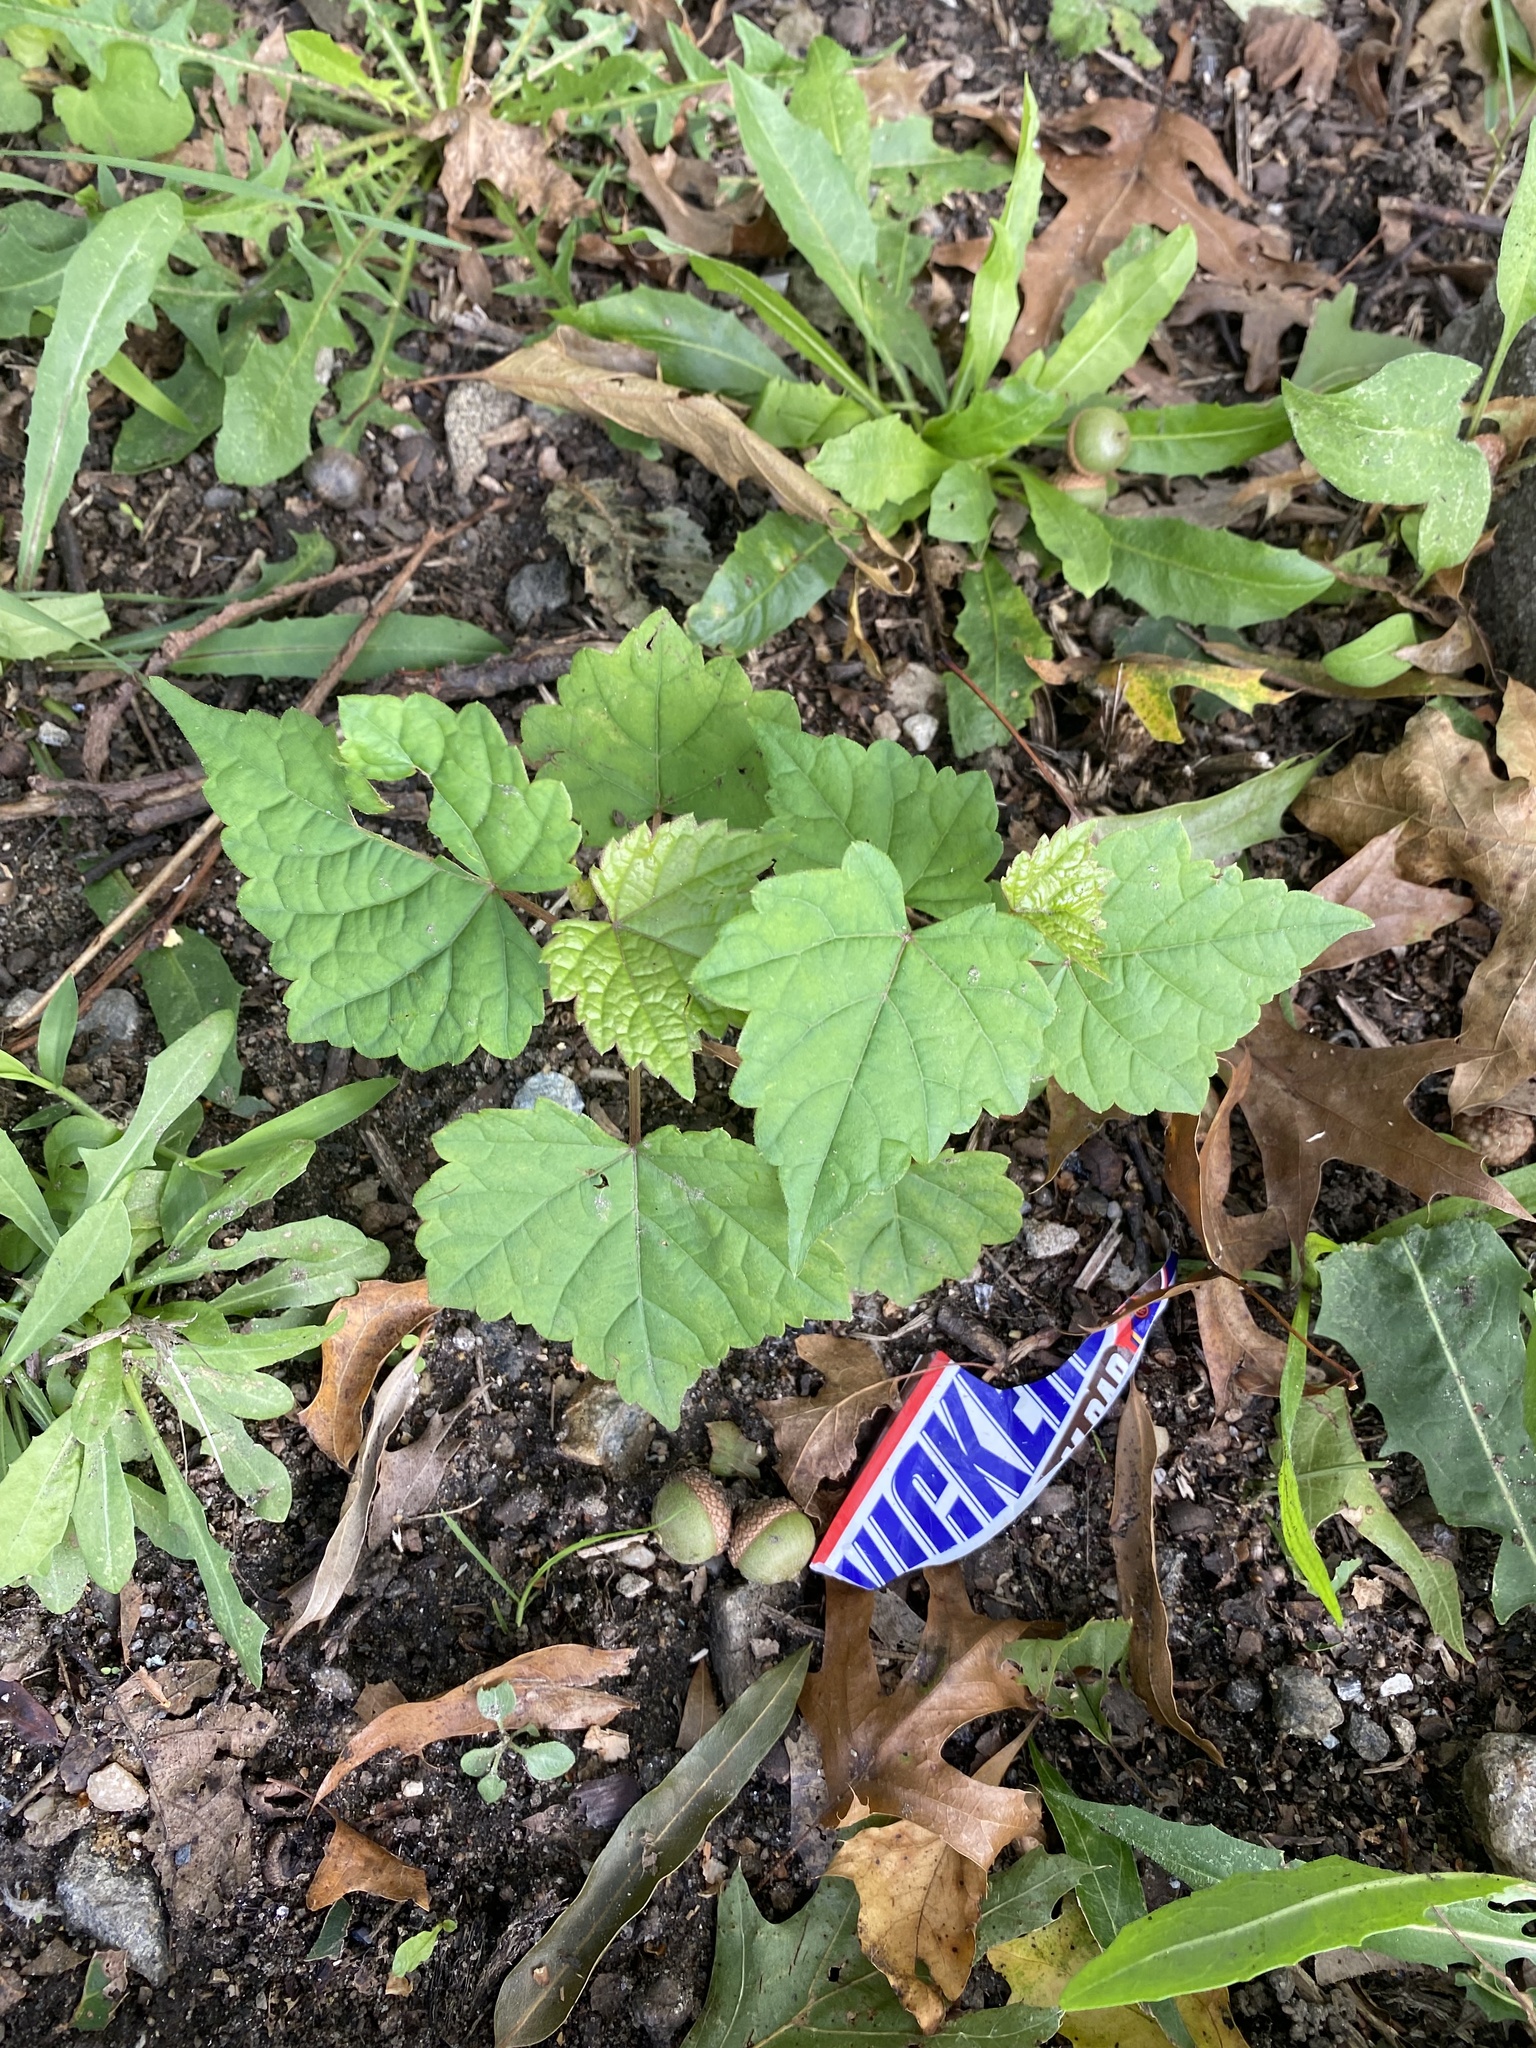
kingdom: Plantae
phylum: Tracheophyta
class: Magnoliopsida
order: Vitales
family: Vitaceae
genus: Ampelopsis
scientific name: Ampelopsis glandulosa
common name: Amur peppervine
